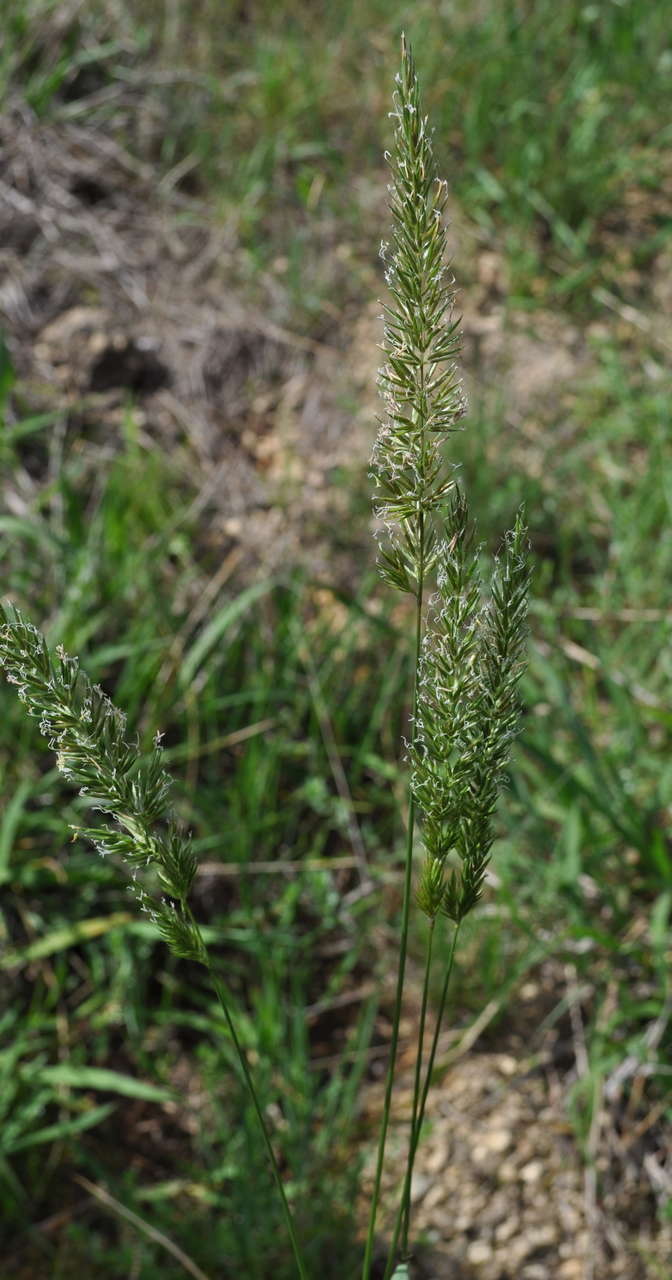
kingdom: Plantae
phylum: Tracheophyta
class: Liliopsida
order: Poales
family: Poaceae
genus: Anthoxanthum
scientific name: Anthoxanthum odoratum
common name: Sweet vernalgrass
